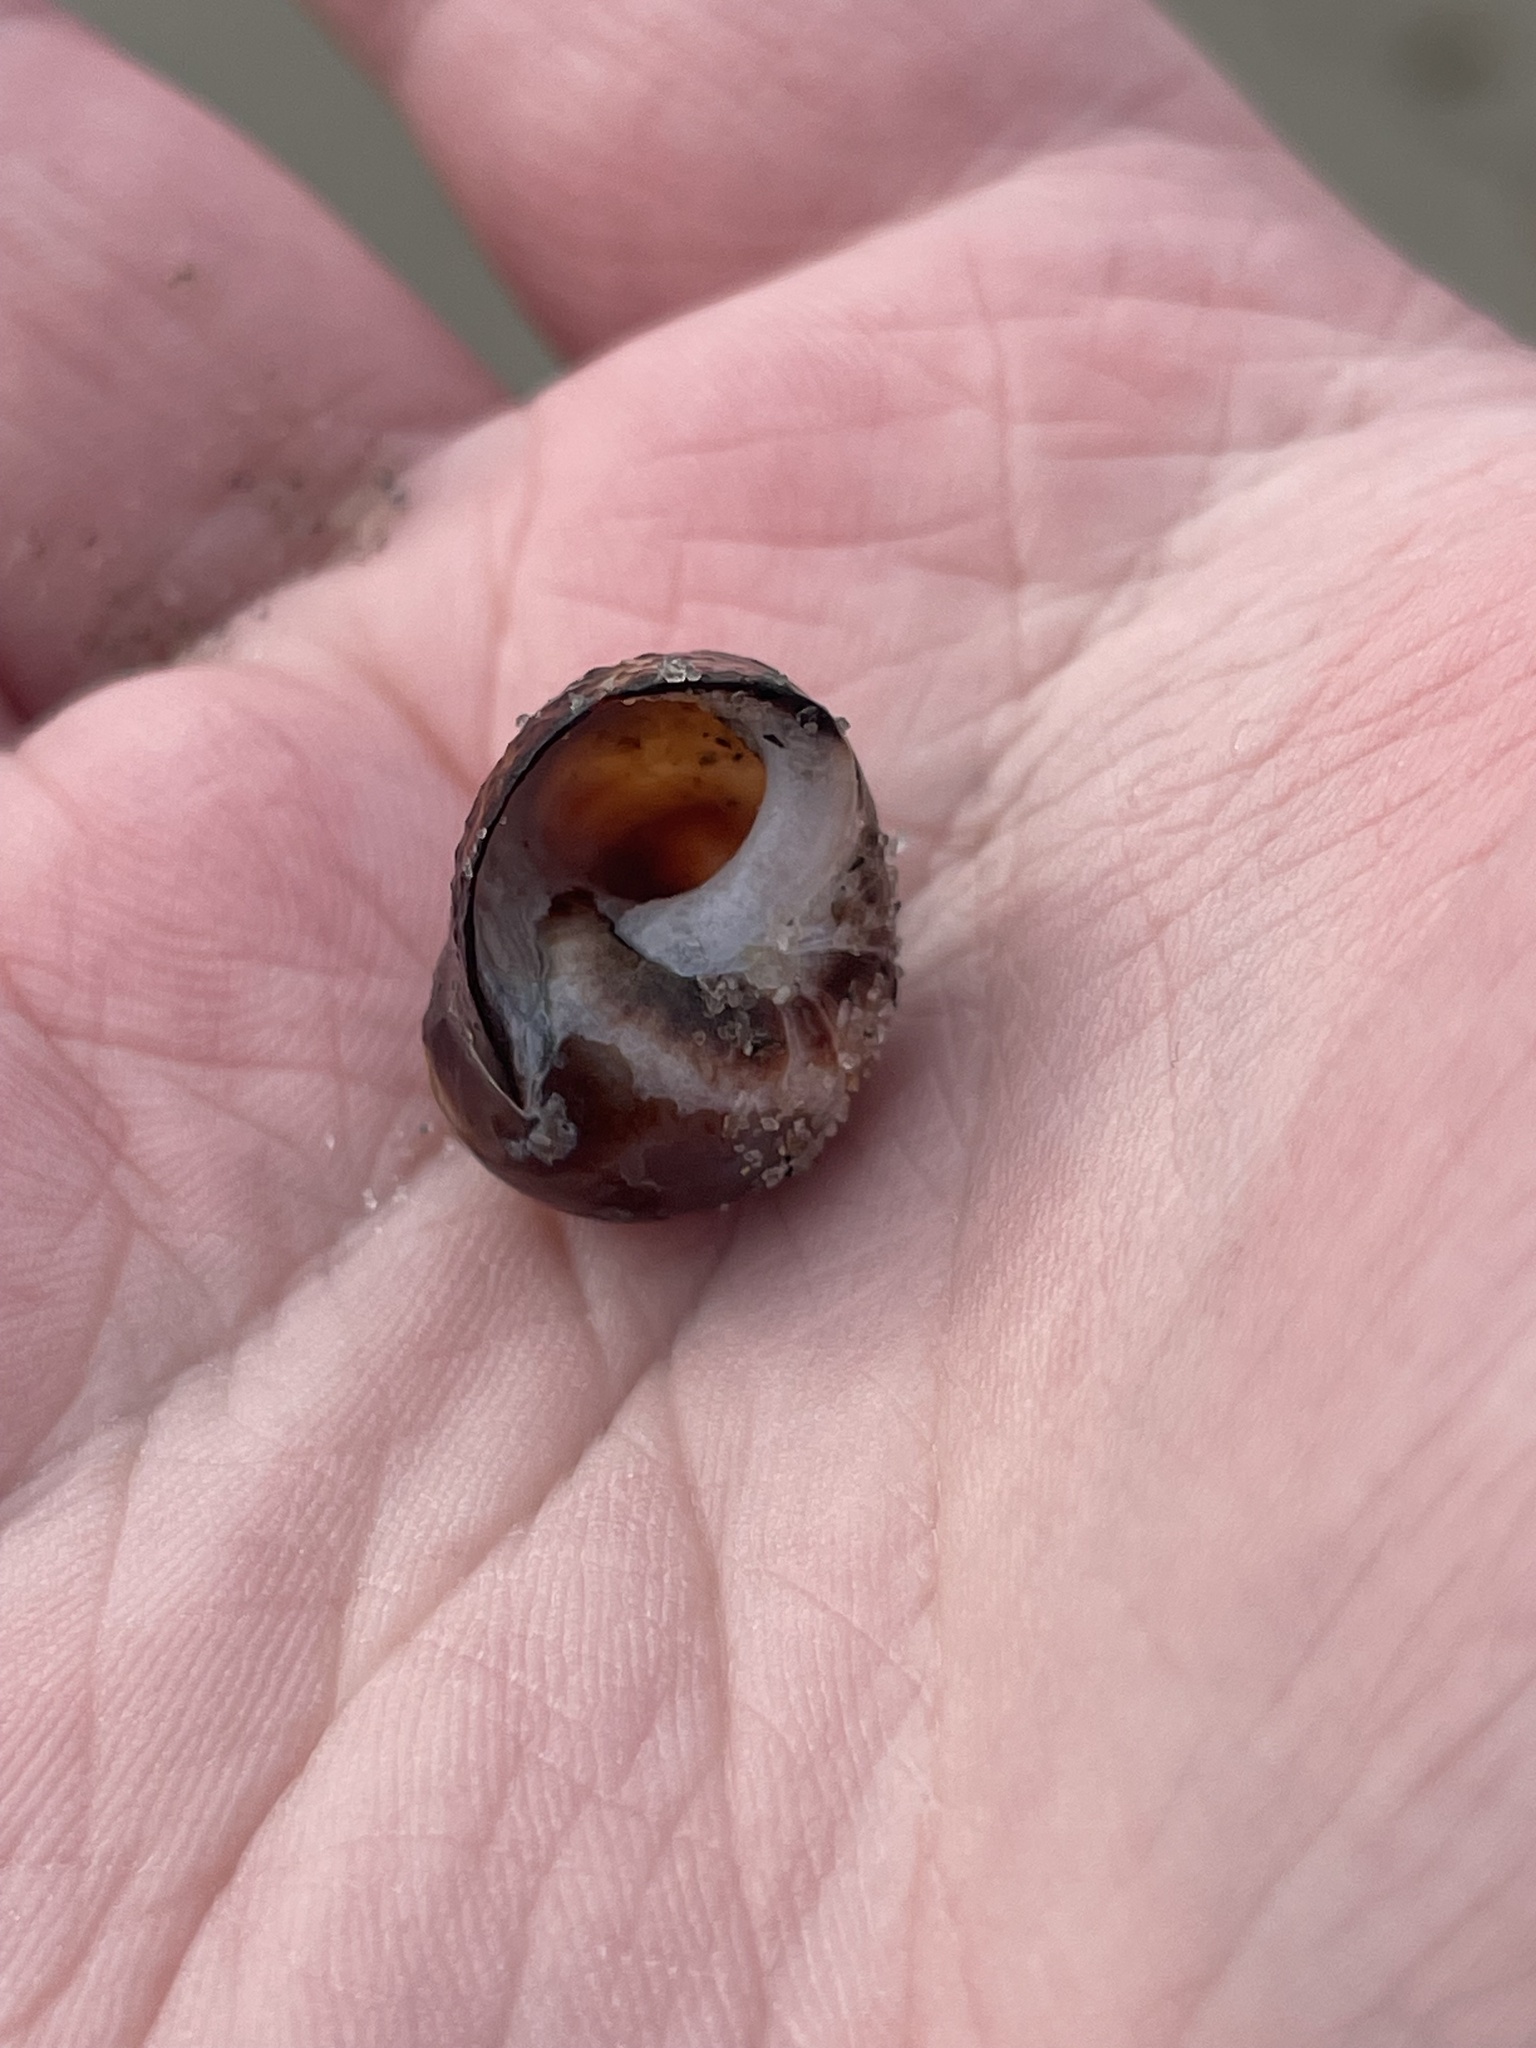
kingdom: Animalia
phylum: Mollusca
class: Gastropoda
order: Littorinimorpha
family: Littorinidae
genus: Littorina
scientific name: Littorina littorea
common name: Common periwinkle
